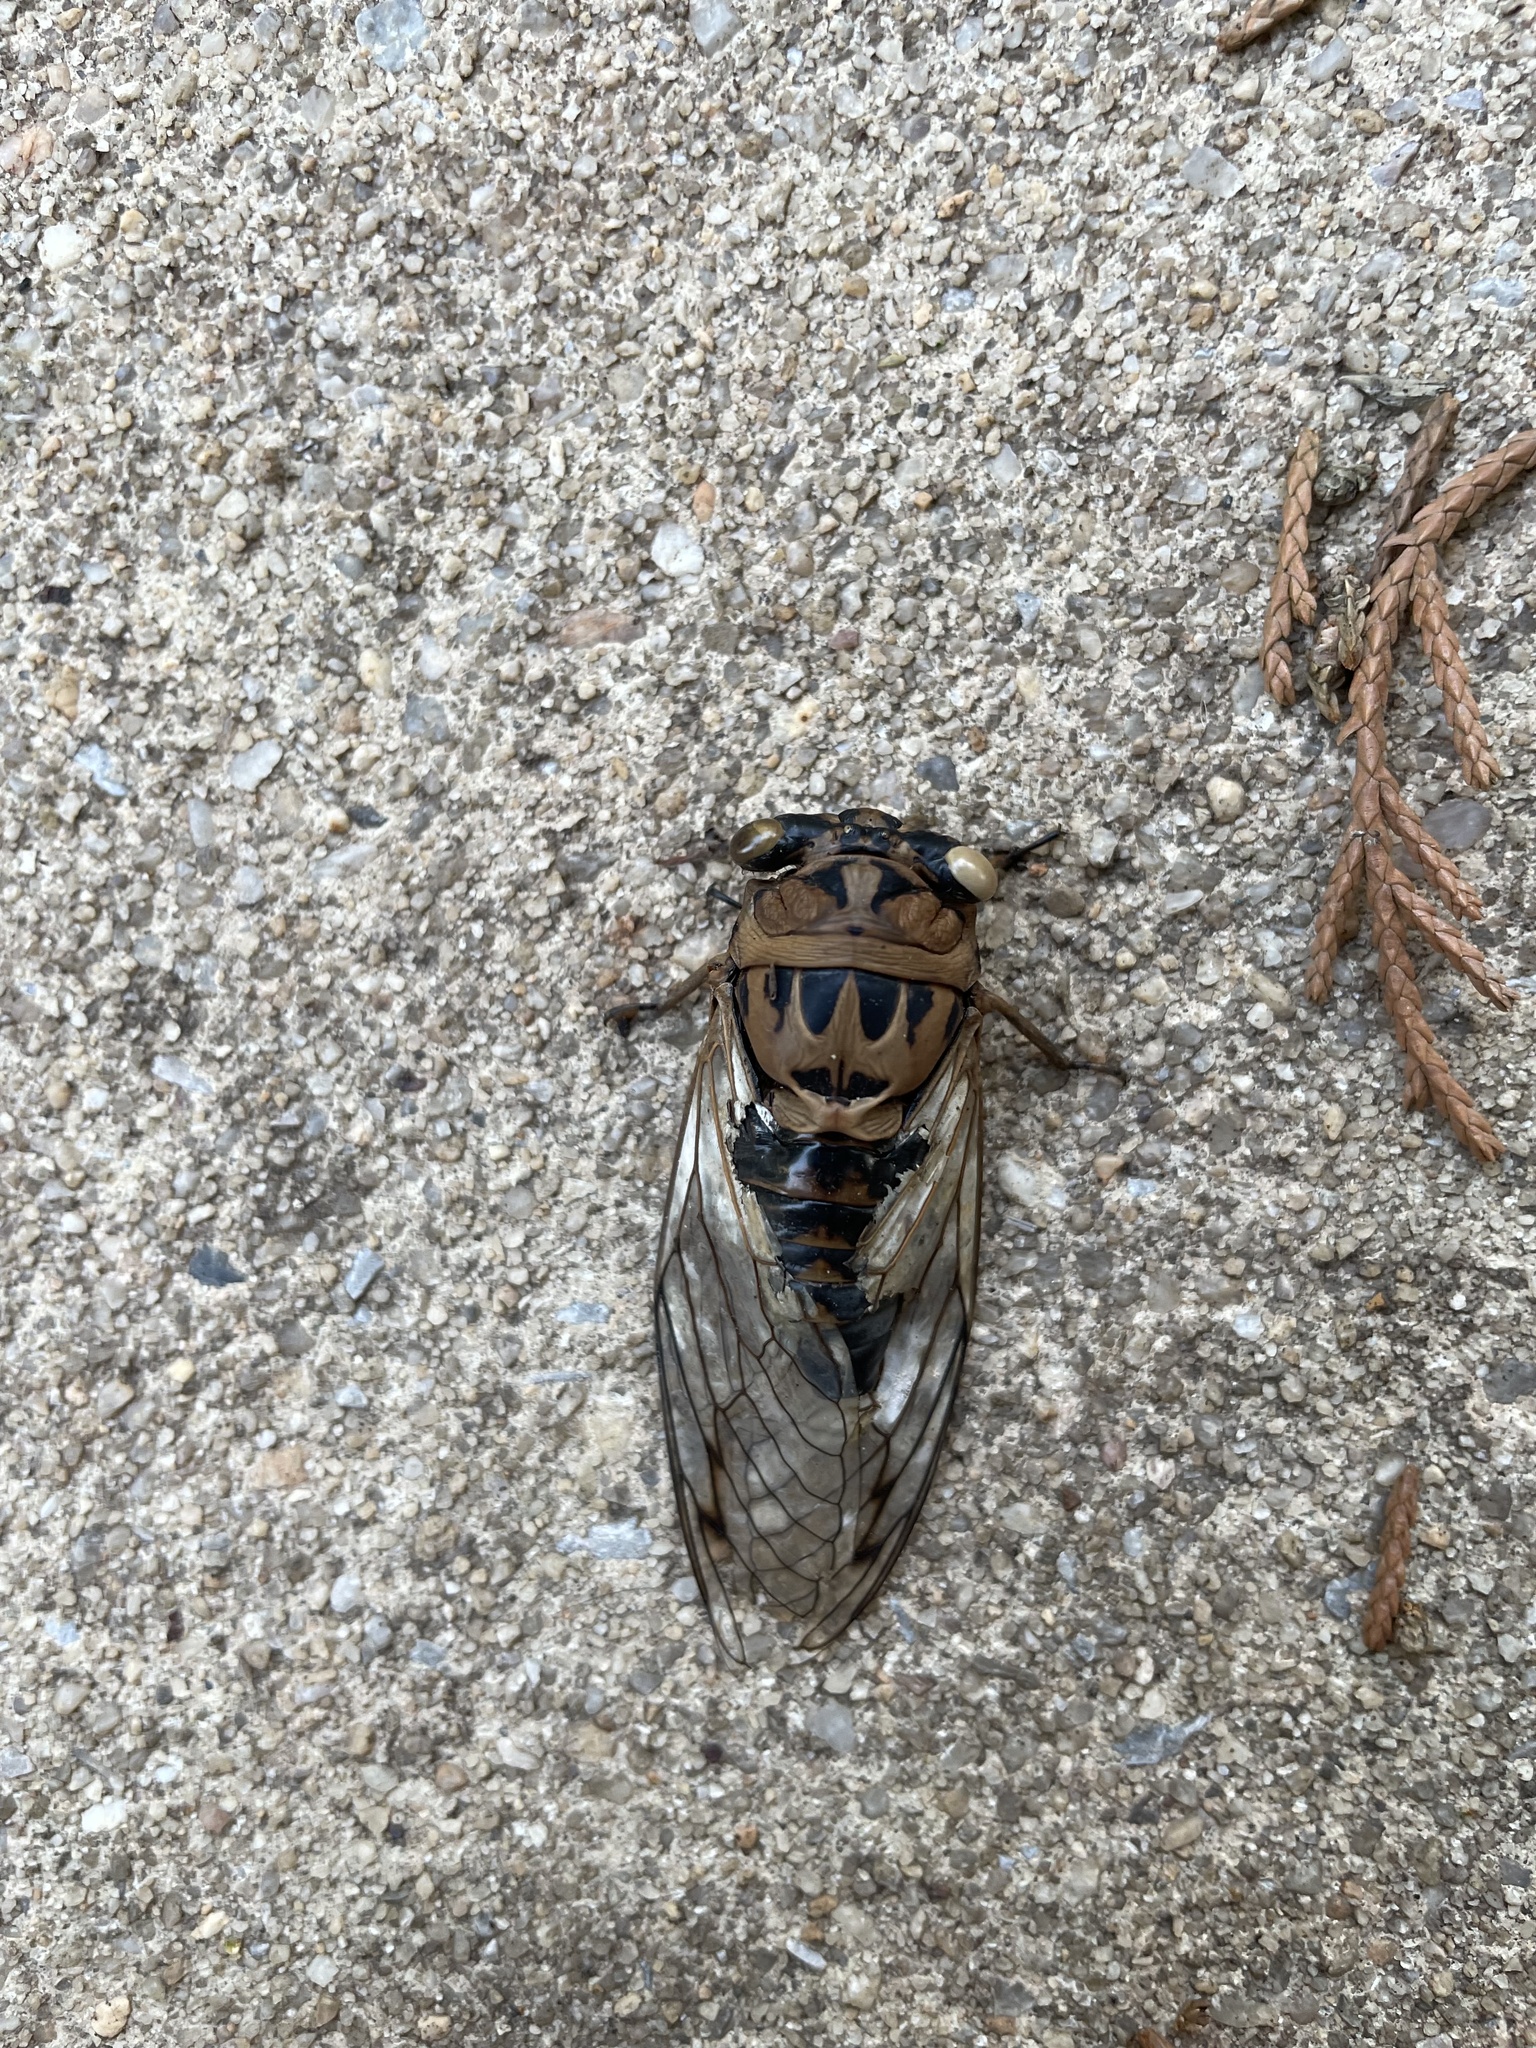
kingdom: Animalia
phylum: Arthropoda
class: Insecta
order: Hemiptera
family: Cicadidae
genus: Neotibicen
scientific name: Neotibicen robinsonianus
